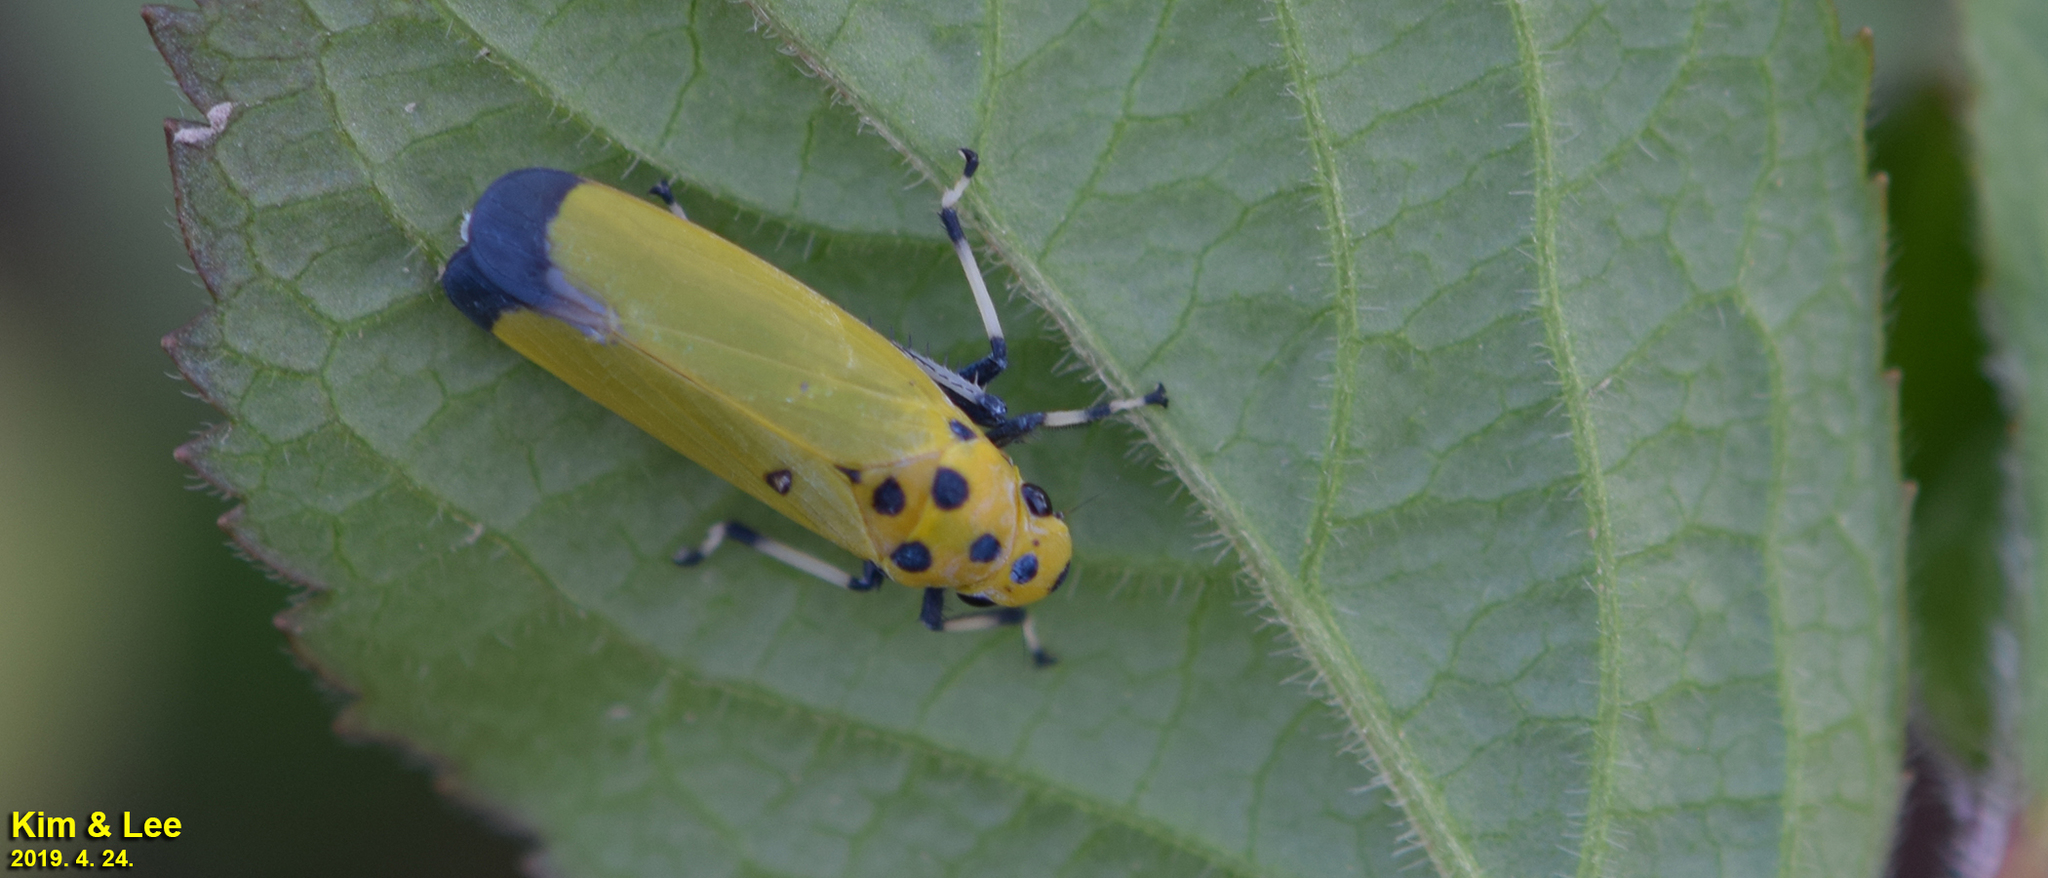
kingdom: Animalia
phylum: Arthropoda
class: Insecta
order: Hemiptera
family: Cicadellidae
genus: Bothrogonia
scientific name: Bothrogonia ferruginea
